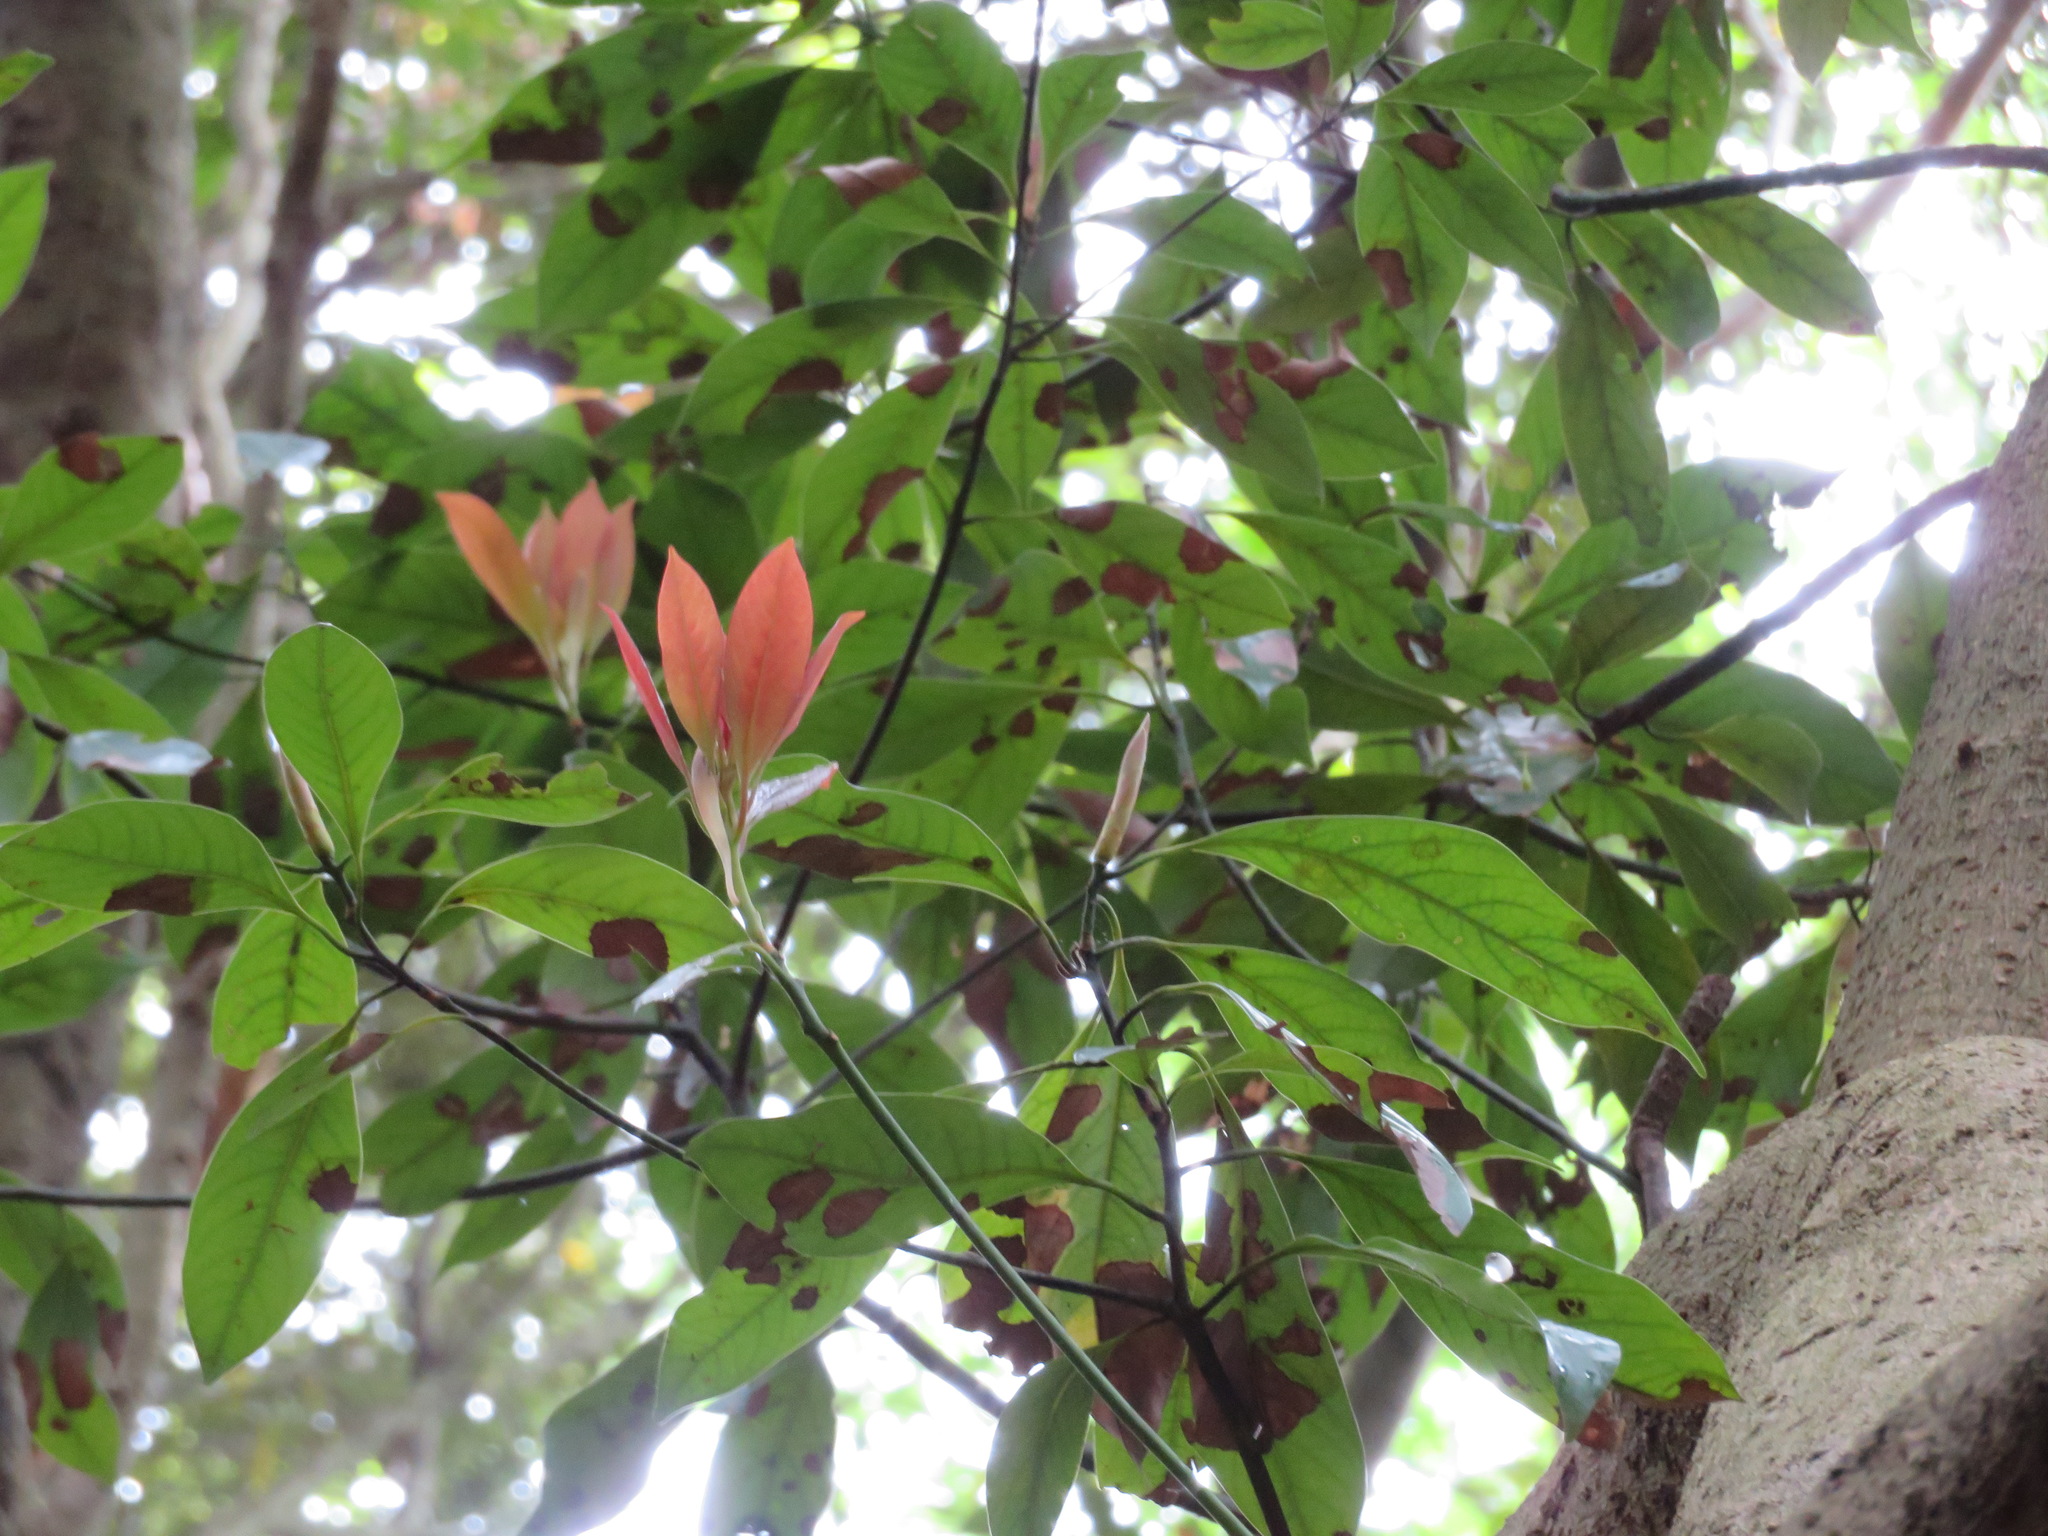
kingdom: Plantae
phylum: Tracheophyta
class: Magnoliopsida
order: Laurales
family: Lauraceae
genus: Machilus
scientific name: Machilus thunbergii
